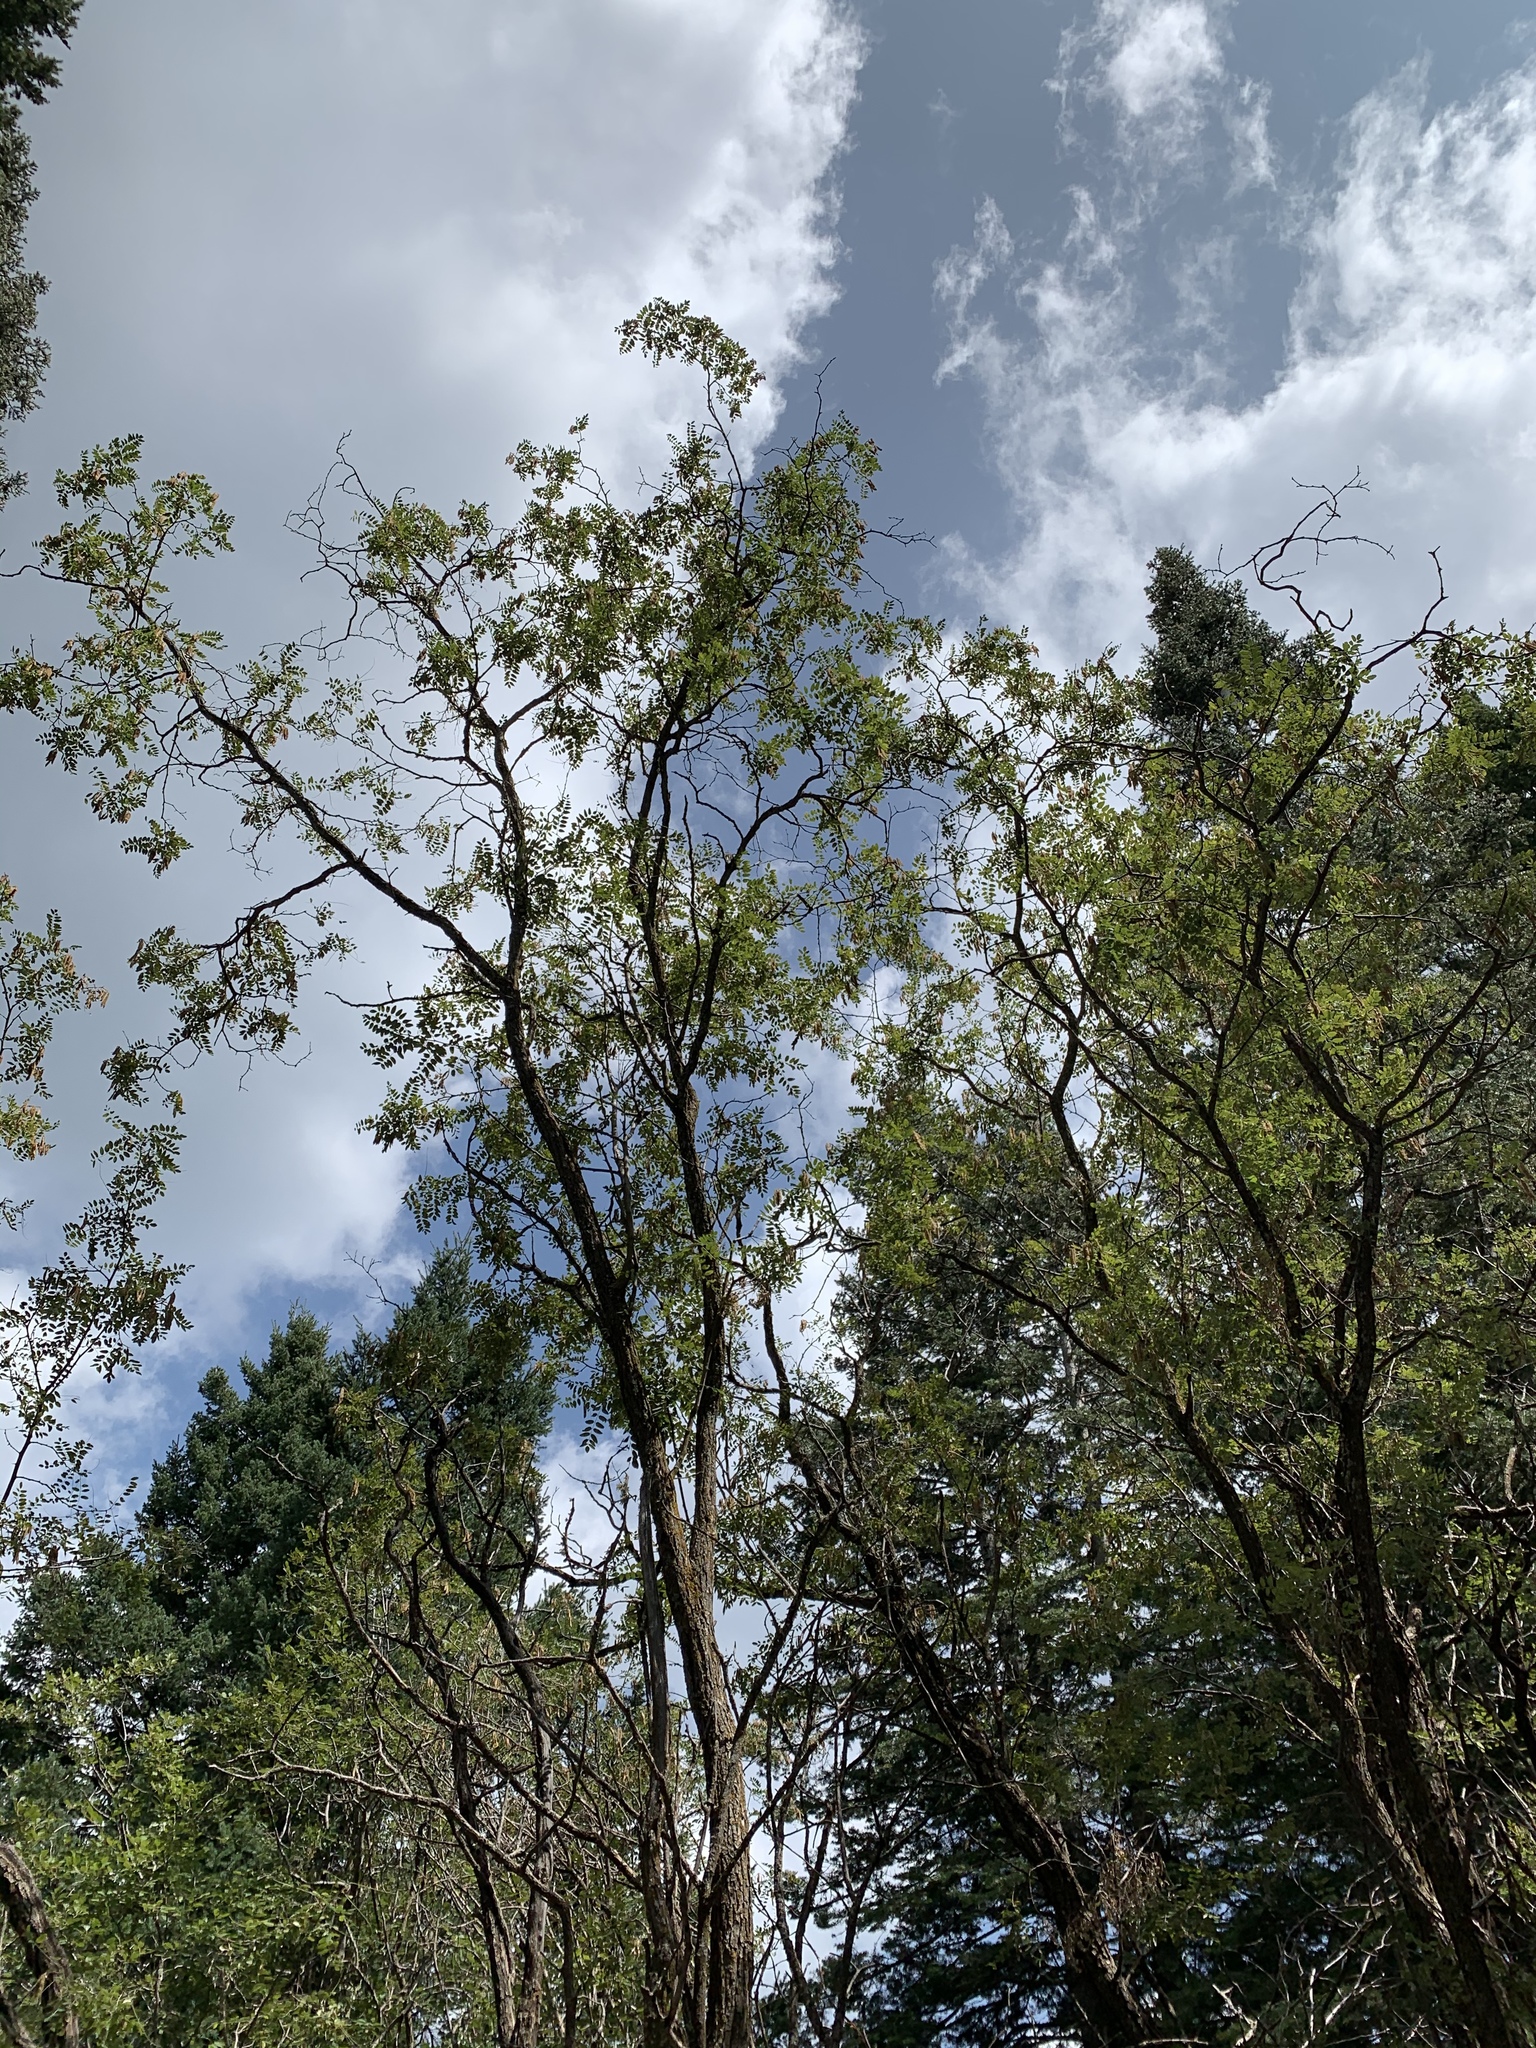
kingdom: Plantae
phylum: Tracheophyta
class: Magnoliopsida
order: Fabales
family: Fabaceae
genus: Robinia
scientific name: Robinia neomexicana
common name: New mexico locust
